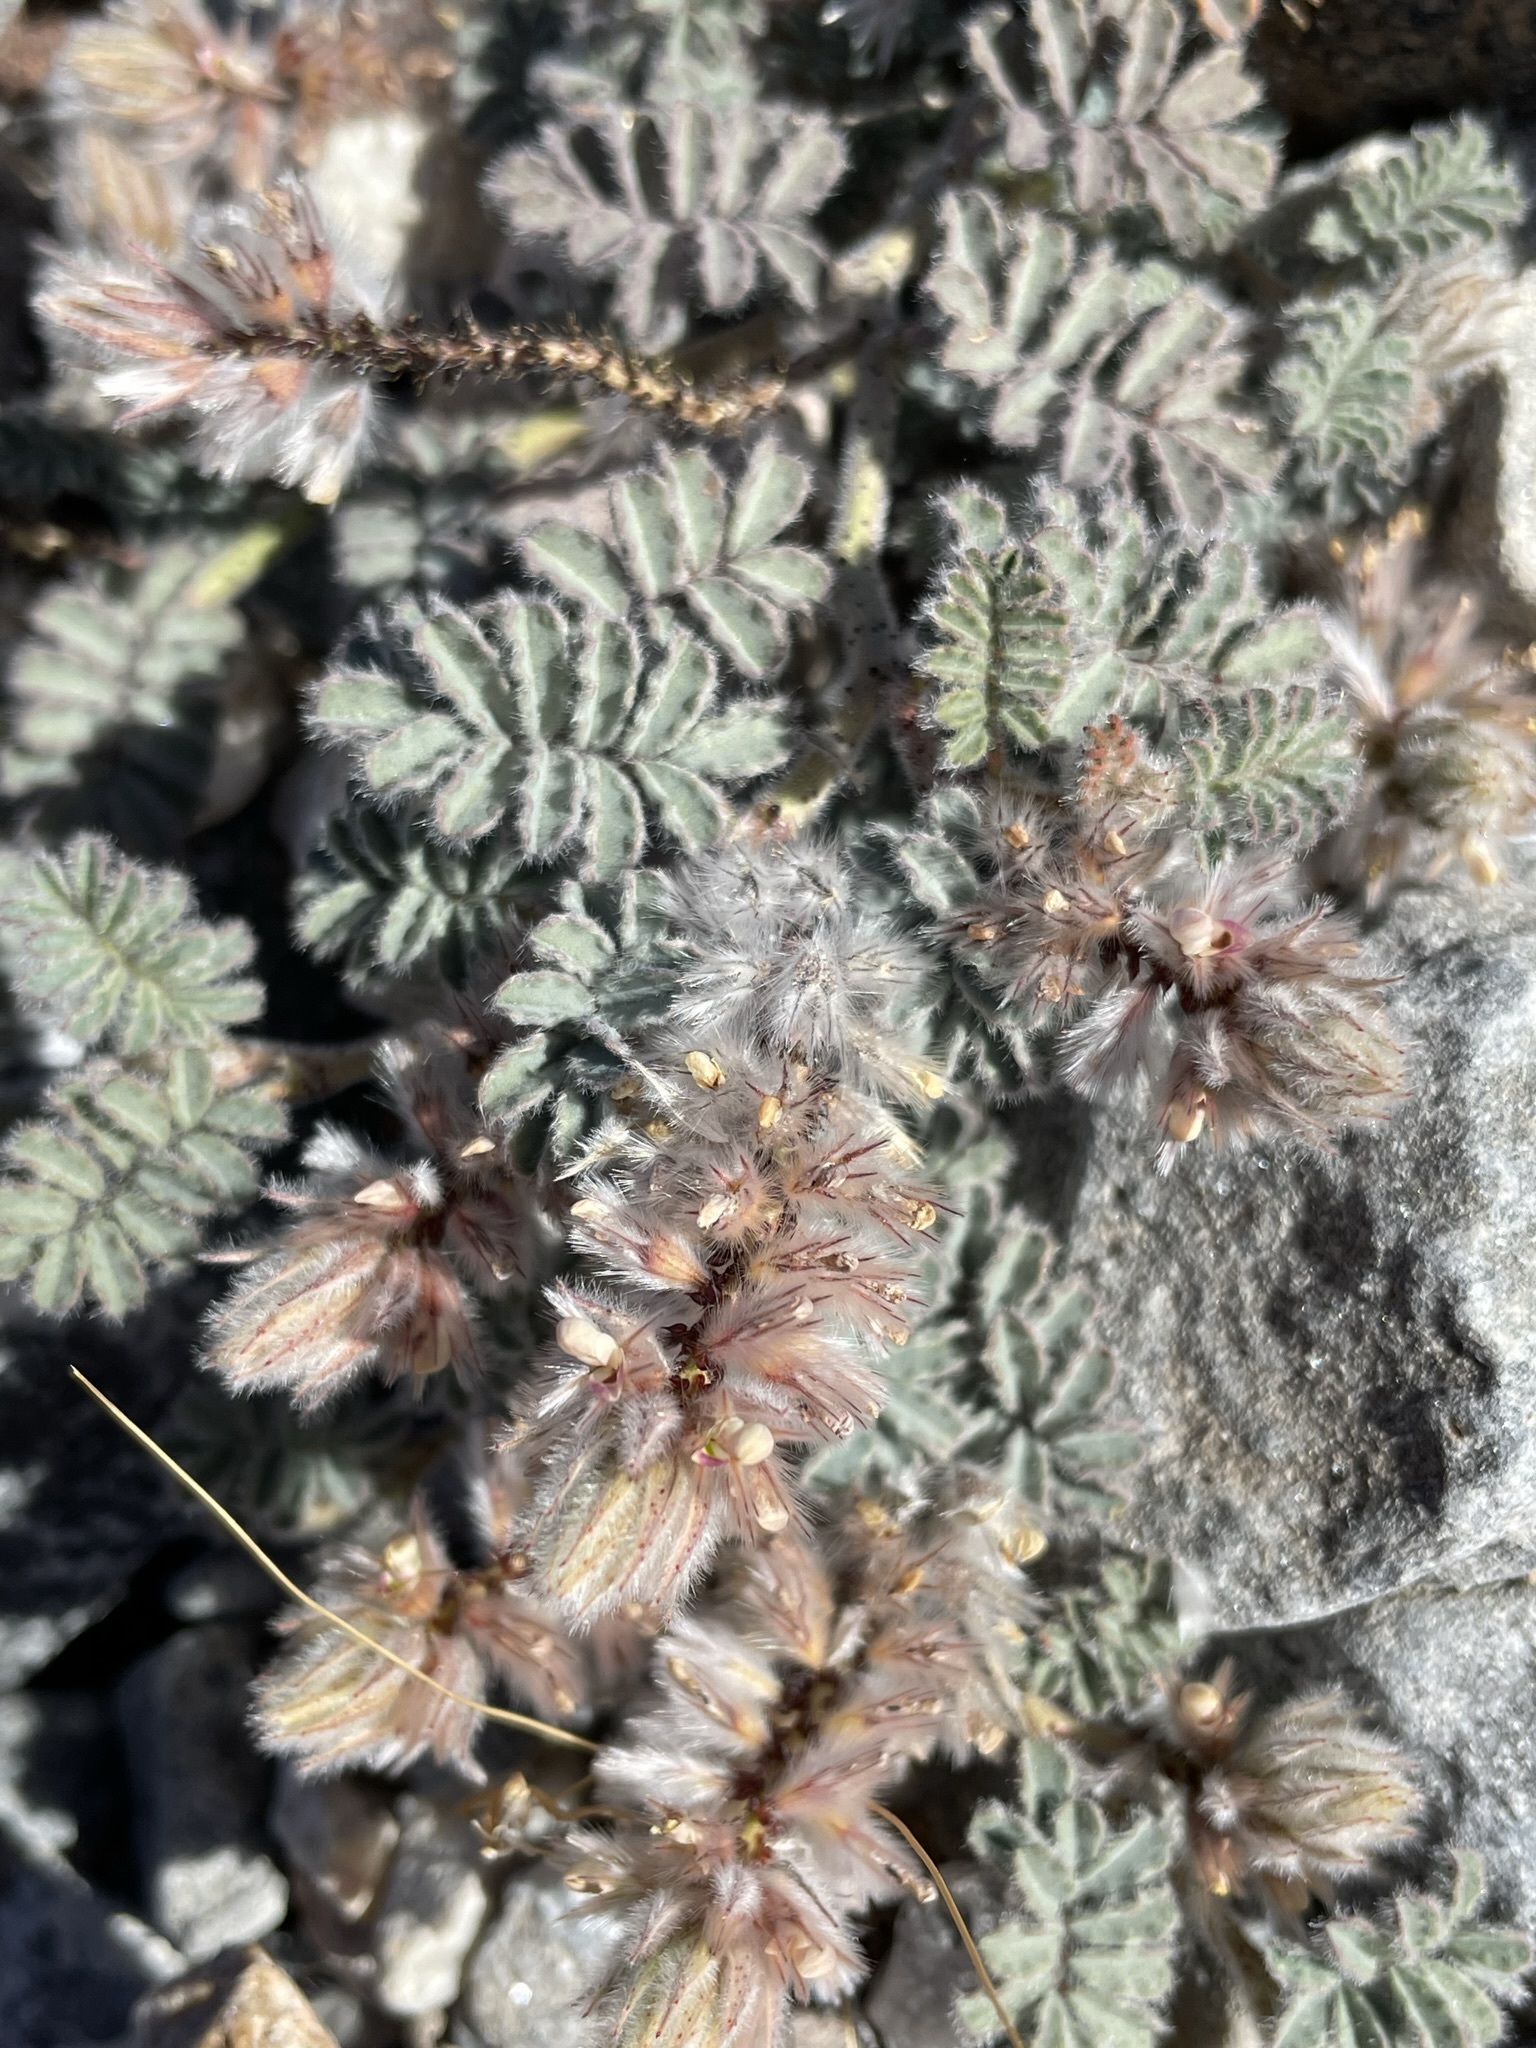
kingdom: Plantae
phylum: Tracheophyta
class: Magnoliopsida
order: Fabales
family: Fabaceae
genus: Dalea
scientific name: Dalea mollissima
